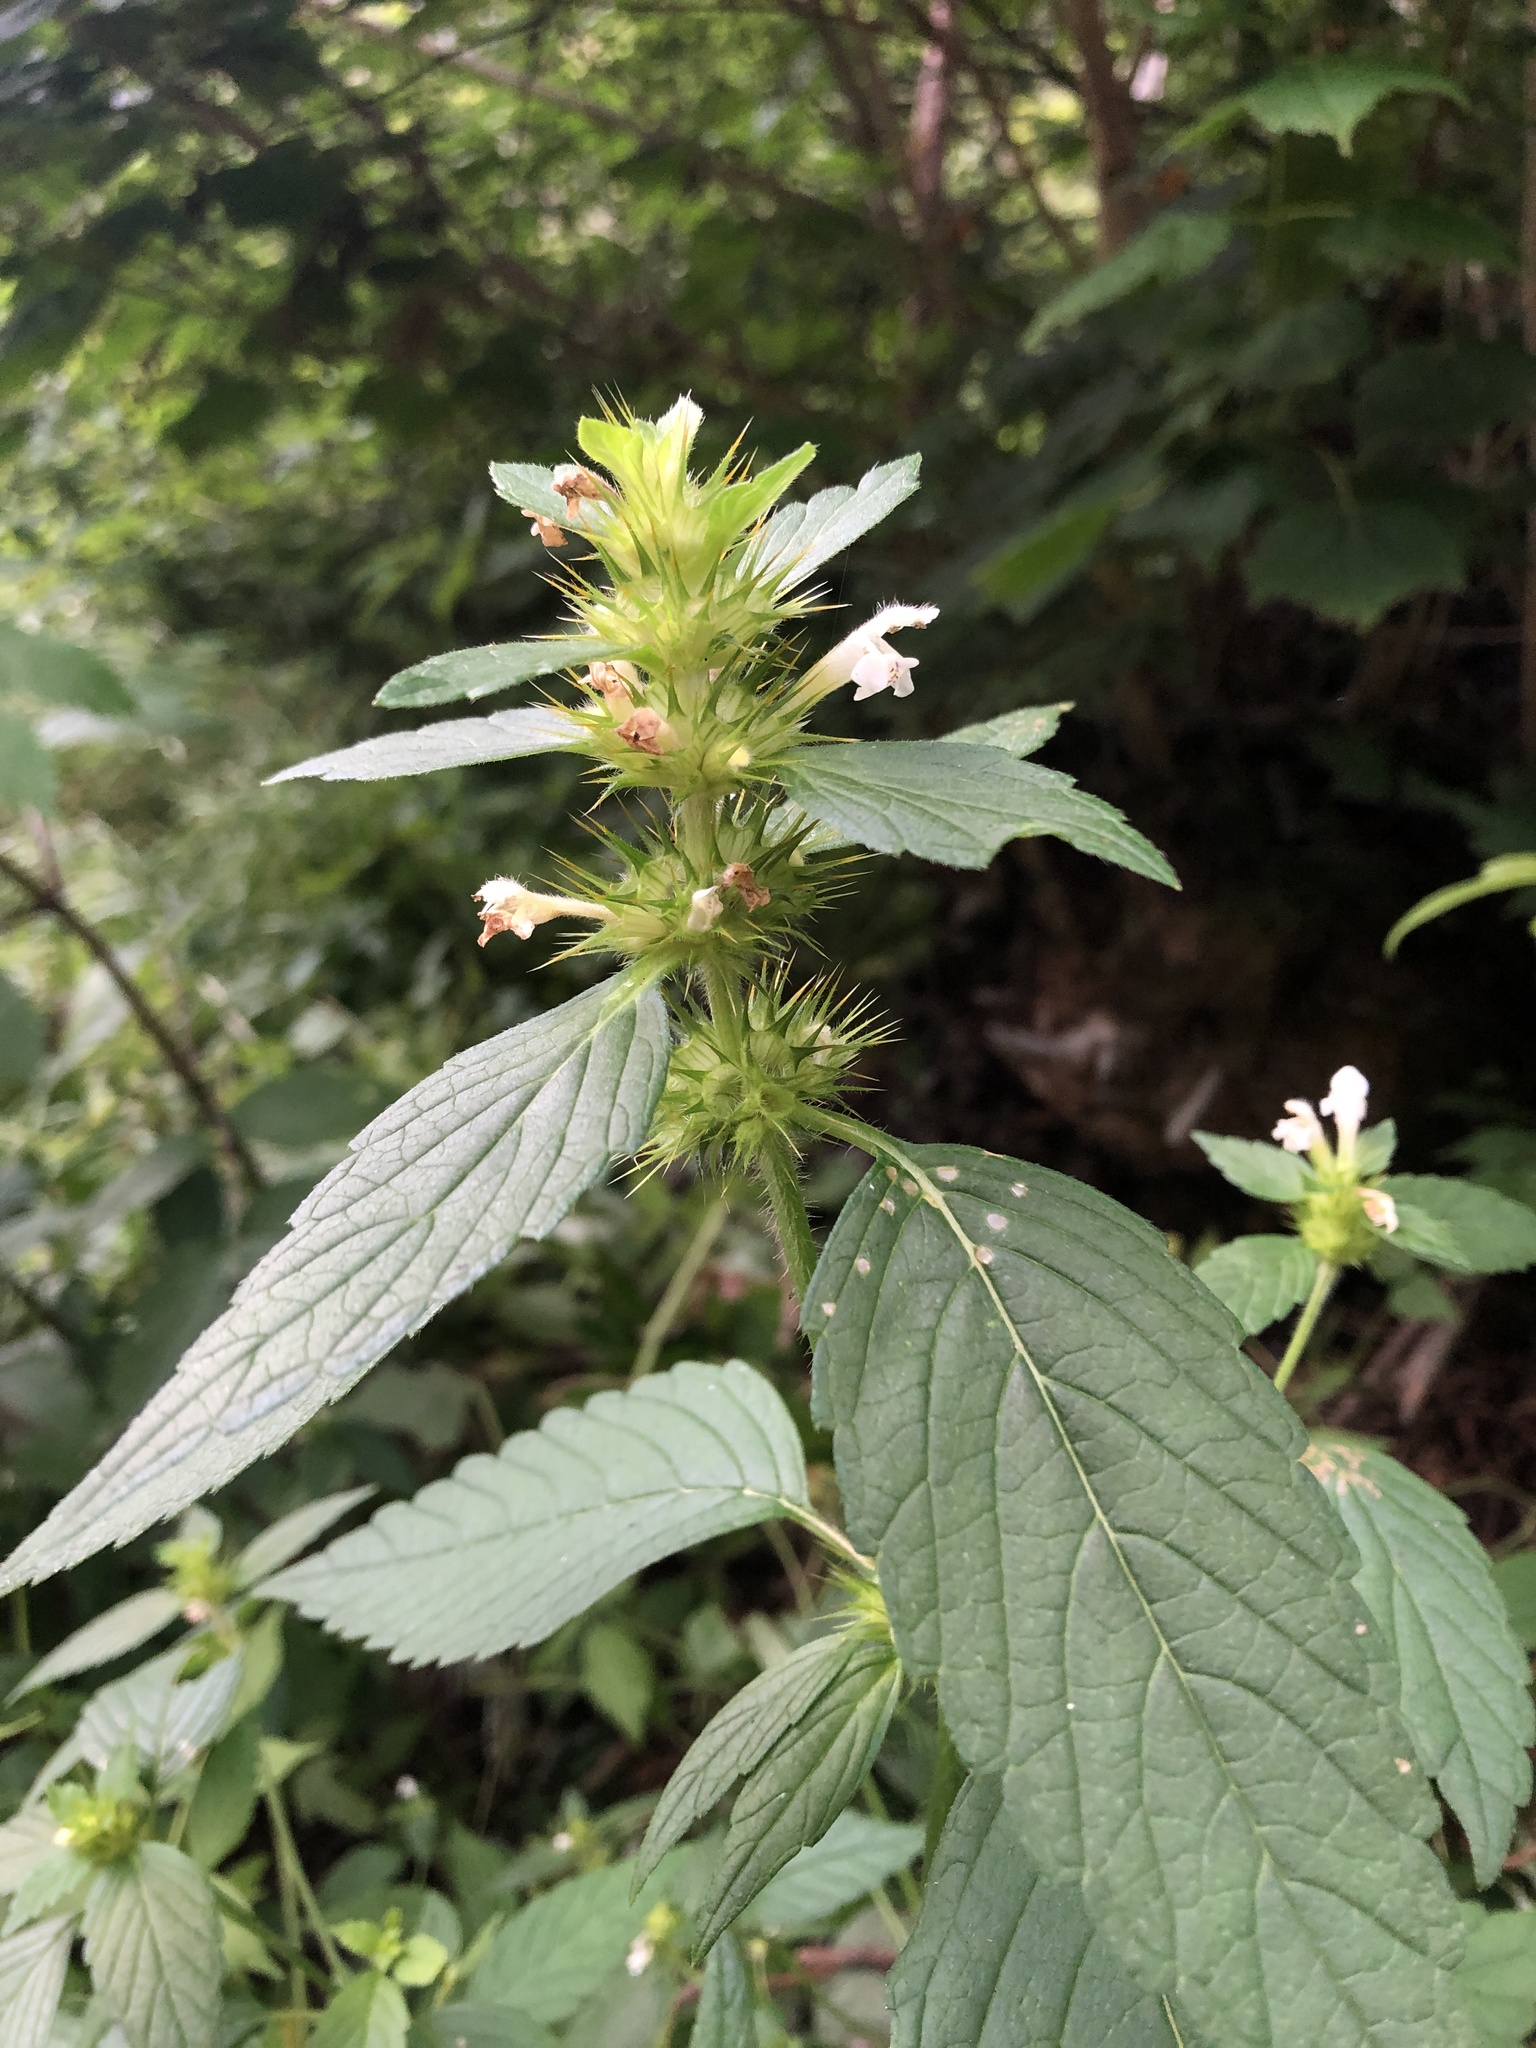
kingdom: Plantae
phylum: Tracheophyta
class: Magnoliopsida
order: Lamiales
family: Lamiaceae
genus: Galeopsis
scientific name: Galeopsis tetrahit
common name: Common hemp-nettle
